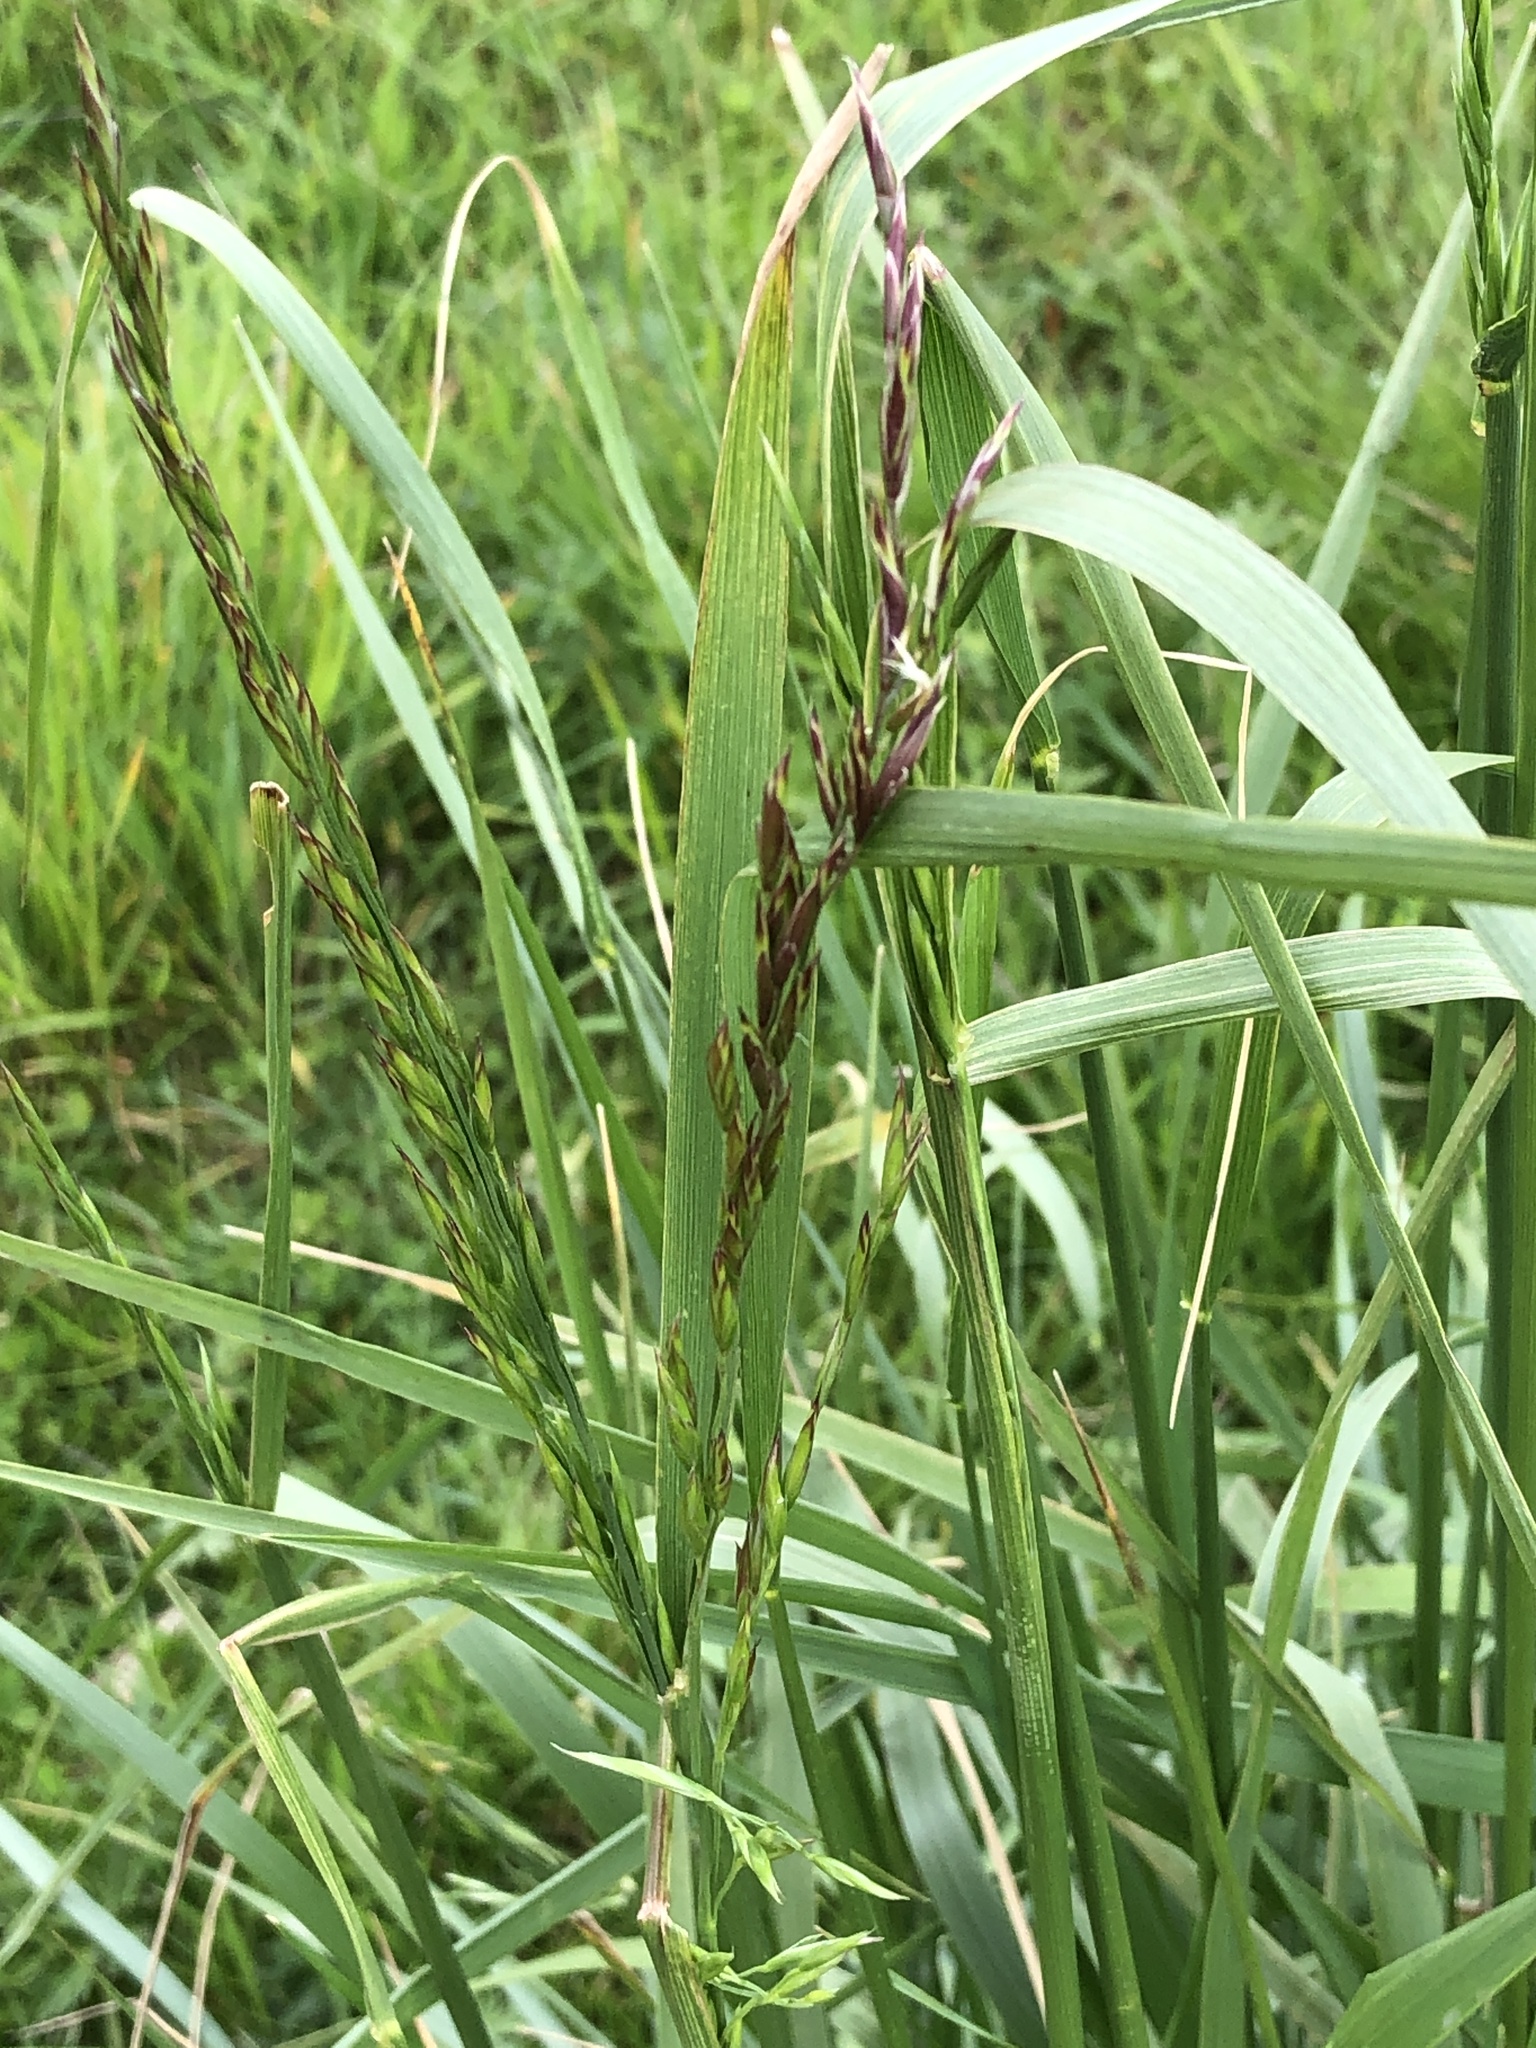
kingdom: Plantae
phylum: Tracheophyta
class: Liliopsida
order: Poales
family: Poaceae
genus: Deschampsia
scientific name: Deschampsia cespitosa
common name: Tufted hair-grass
